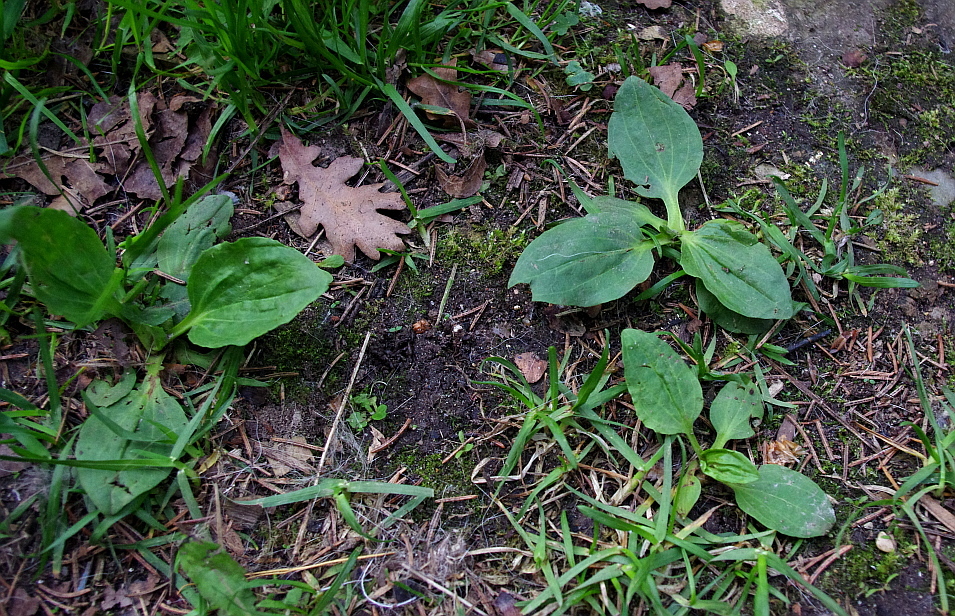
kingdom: Plantae
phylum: Tracheophyta
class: Magnoliopsida
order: Lamiales
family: Plantaginaceae
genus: Plantago
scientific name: Plantago major
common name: Common plantain
